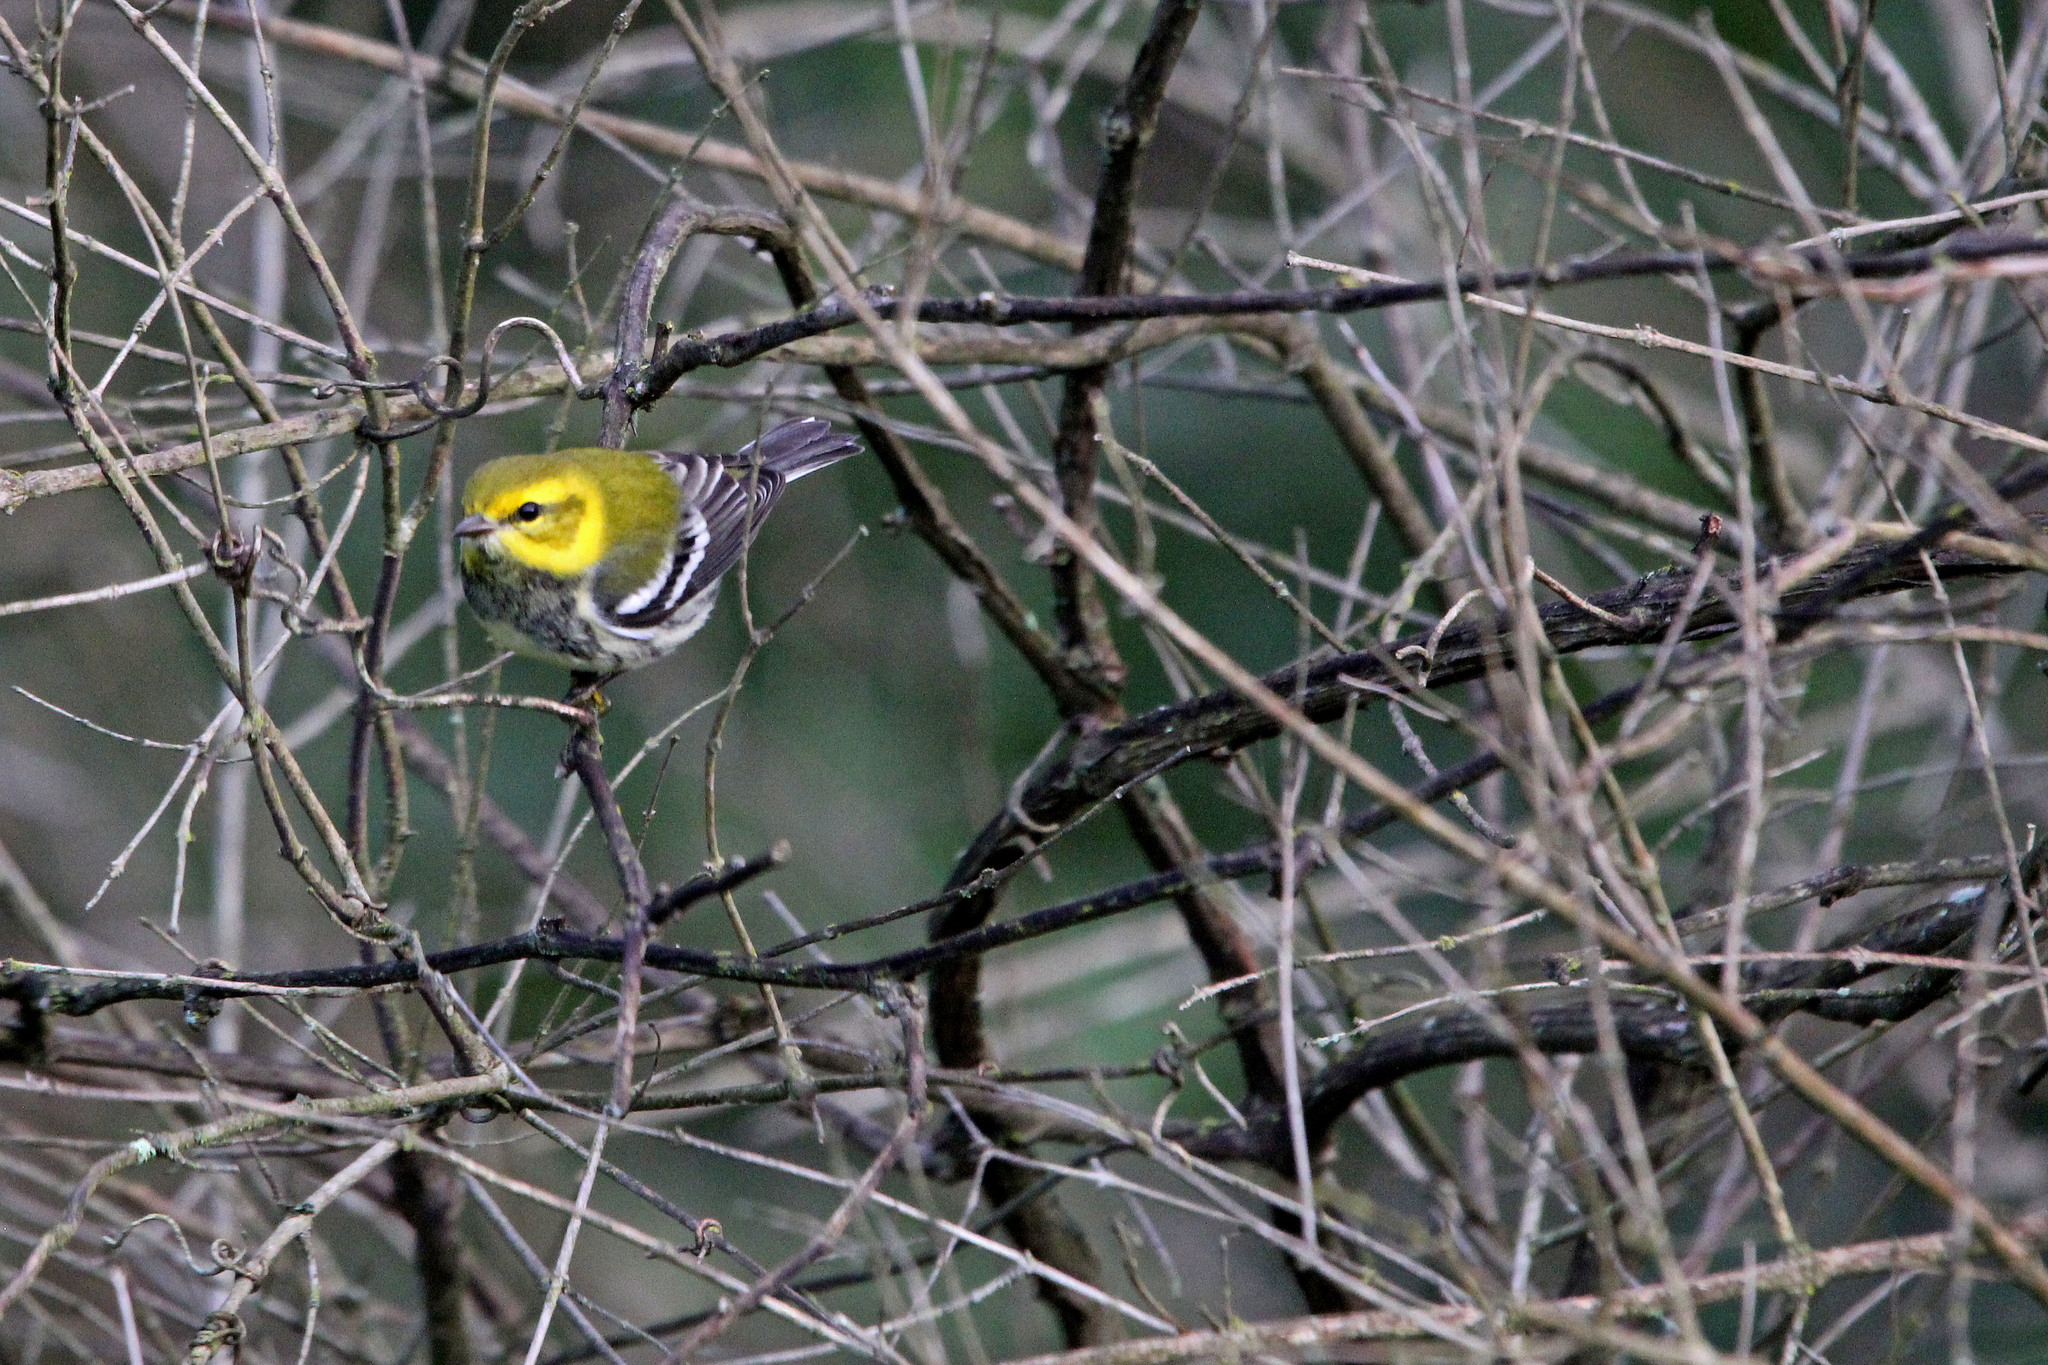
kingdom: Animalia
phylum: Chordata
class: Aves
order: Passeriformes
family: Parulidae
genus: Setophaga
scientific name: Setophaga virens
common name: Black-throated green warbler
